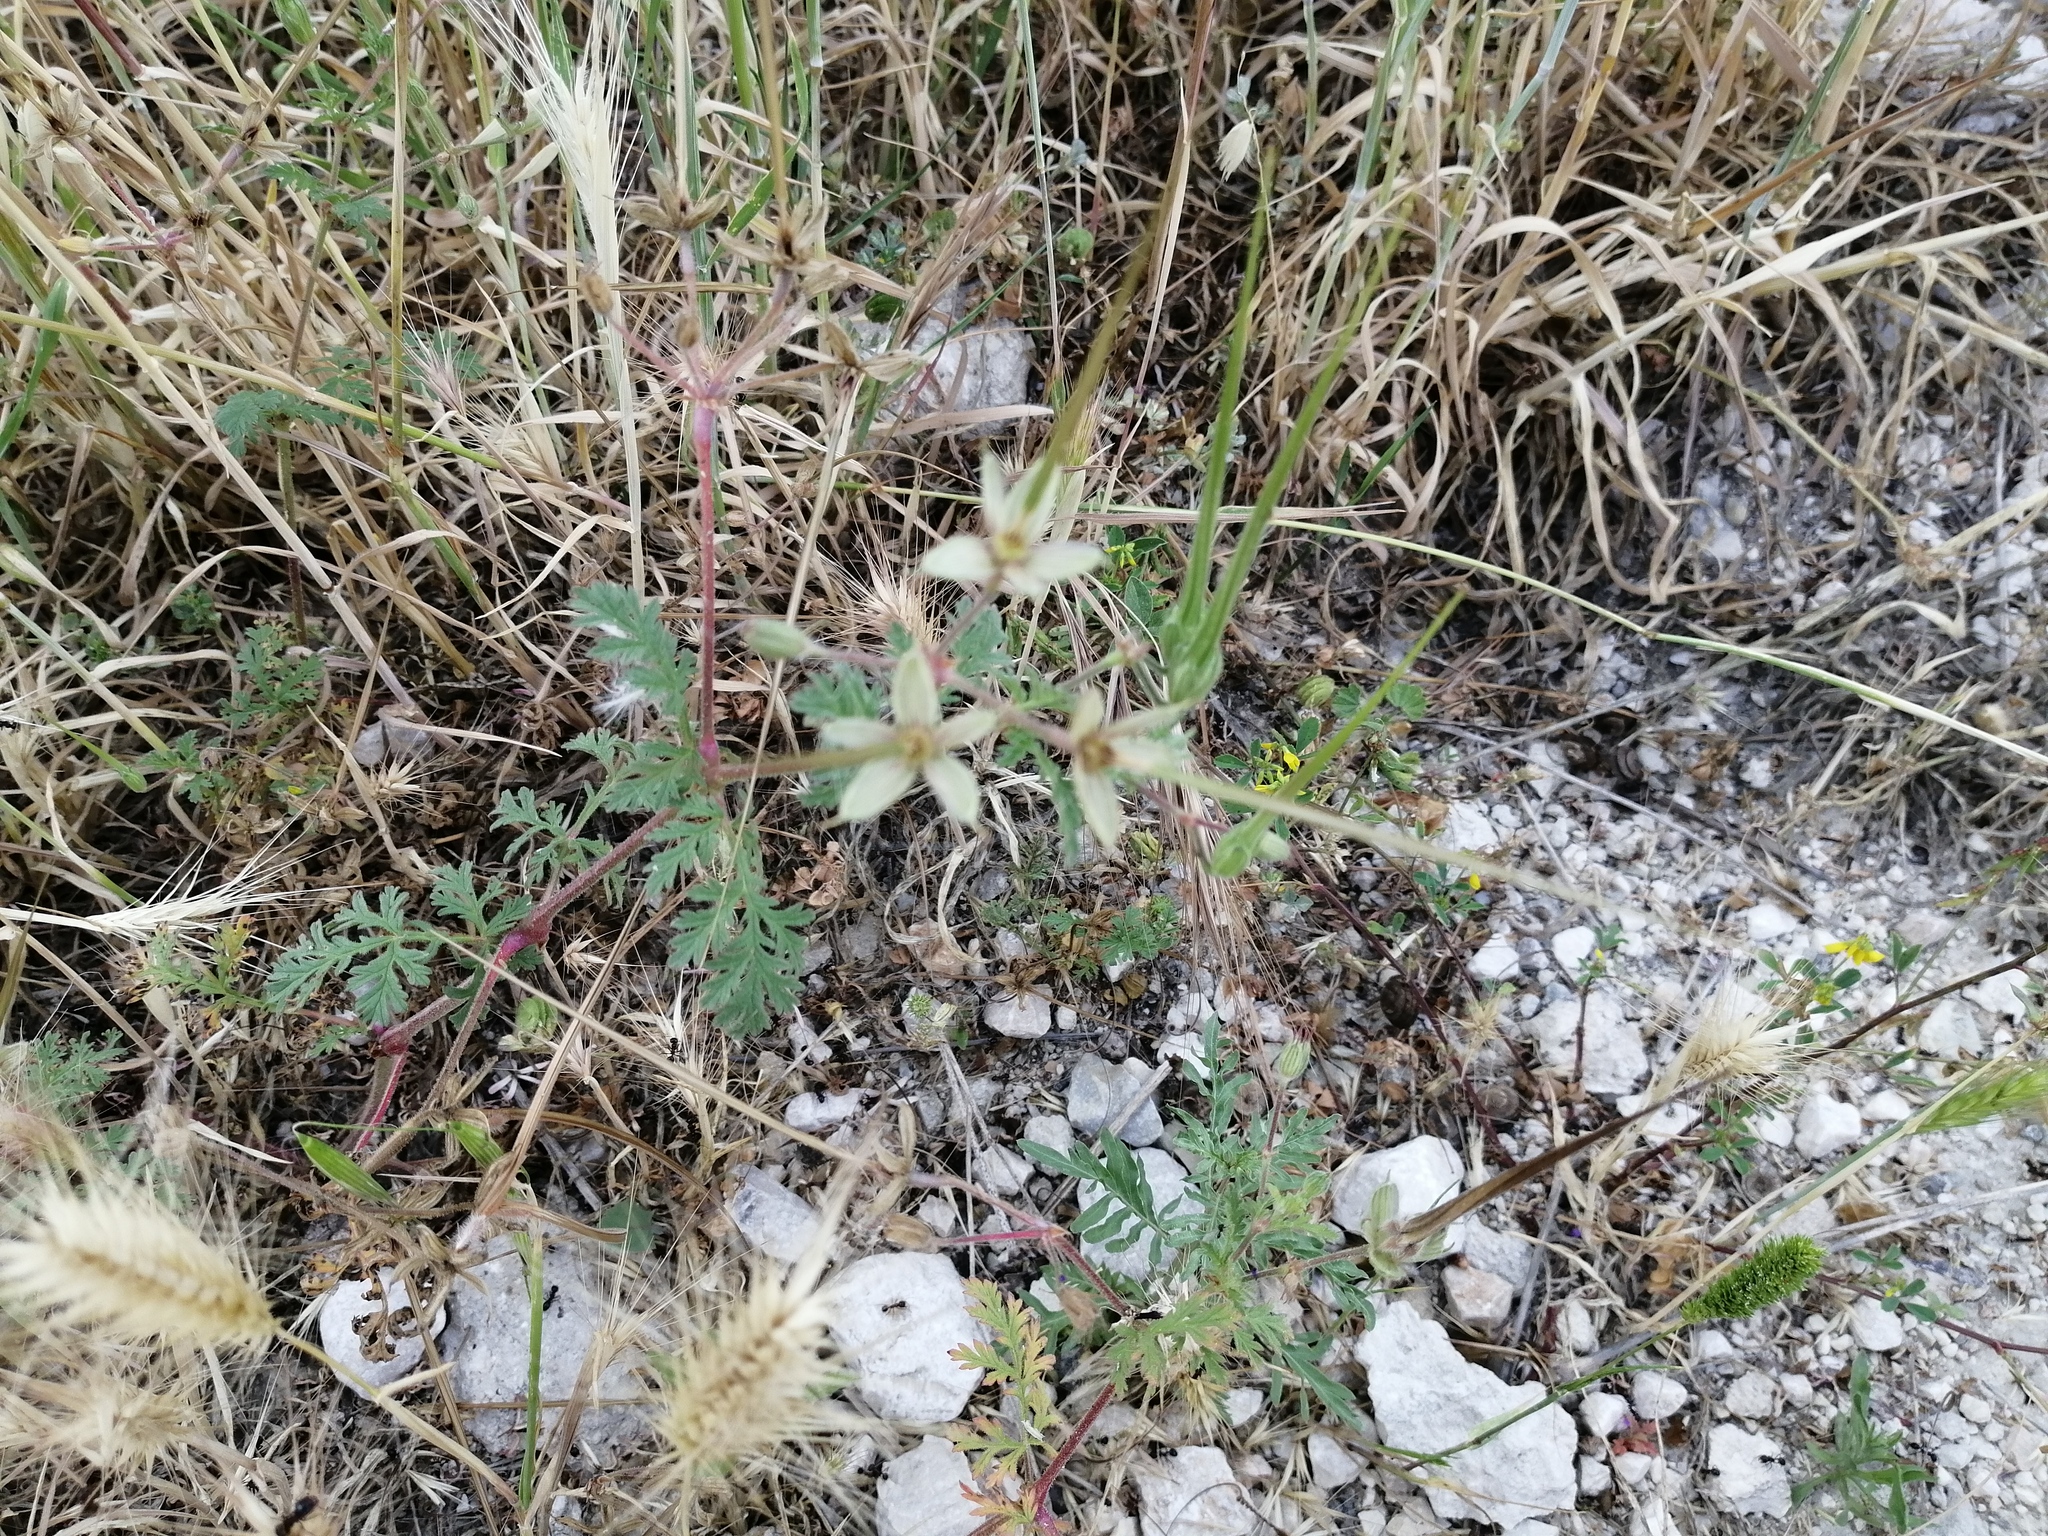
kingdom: Plantae
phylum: Tracheophyta
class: Magnoliopsida
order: Geraniales
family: Geraniaceae
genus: Erodium
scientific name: Erodium ciconium
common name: Common stork's bill
